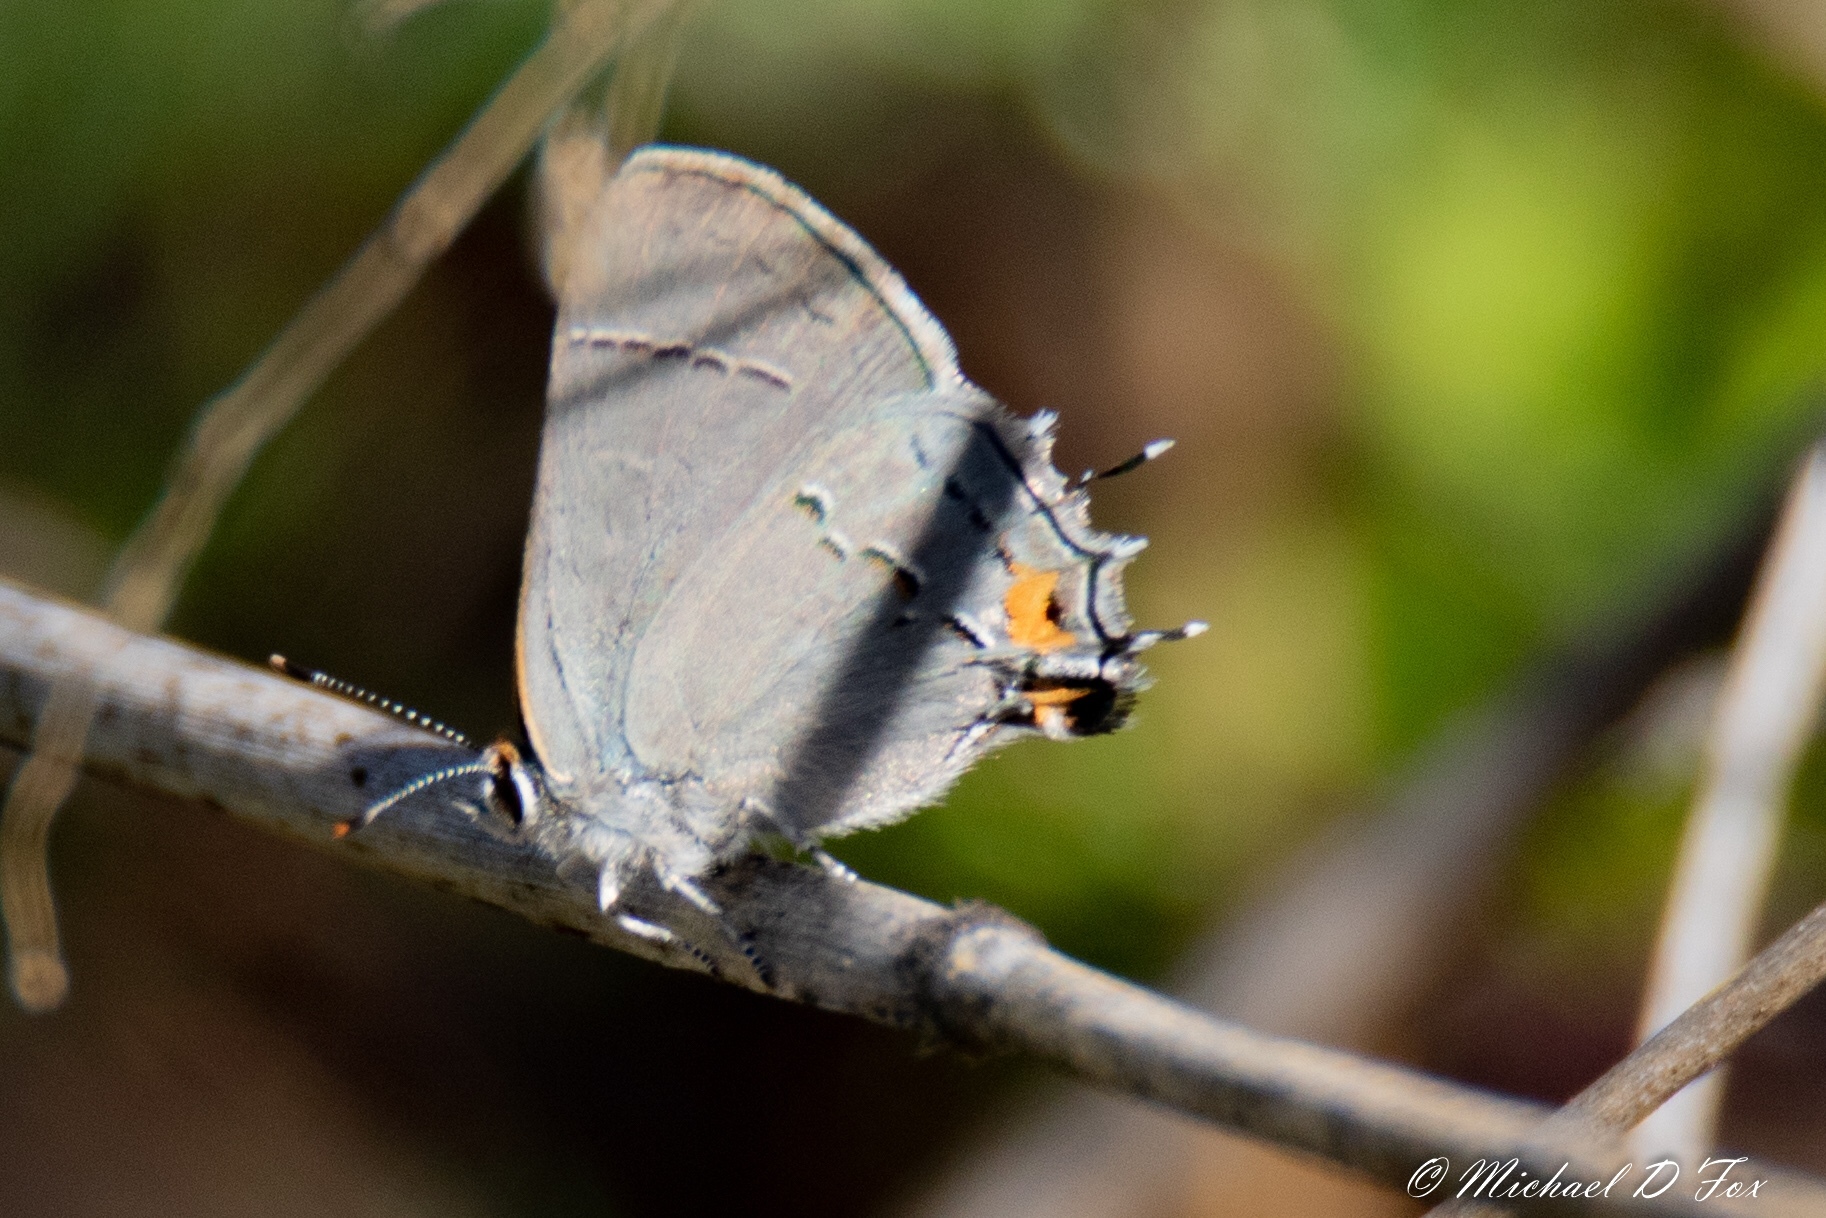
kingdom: Animalia
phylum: Arthropoda
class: Insecta
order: Lepidoptera
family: Lycaenidae
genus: Strymon
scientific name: Strymon melinus
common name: Gray hairstreak
